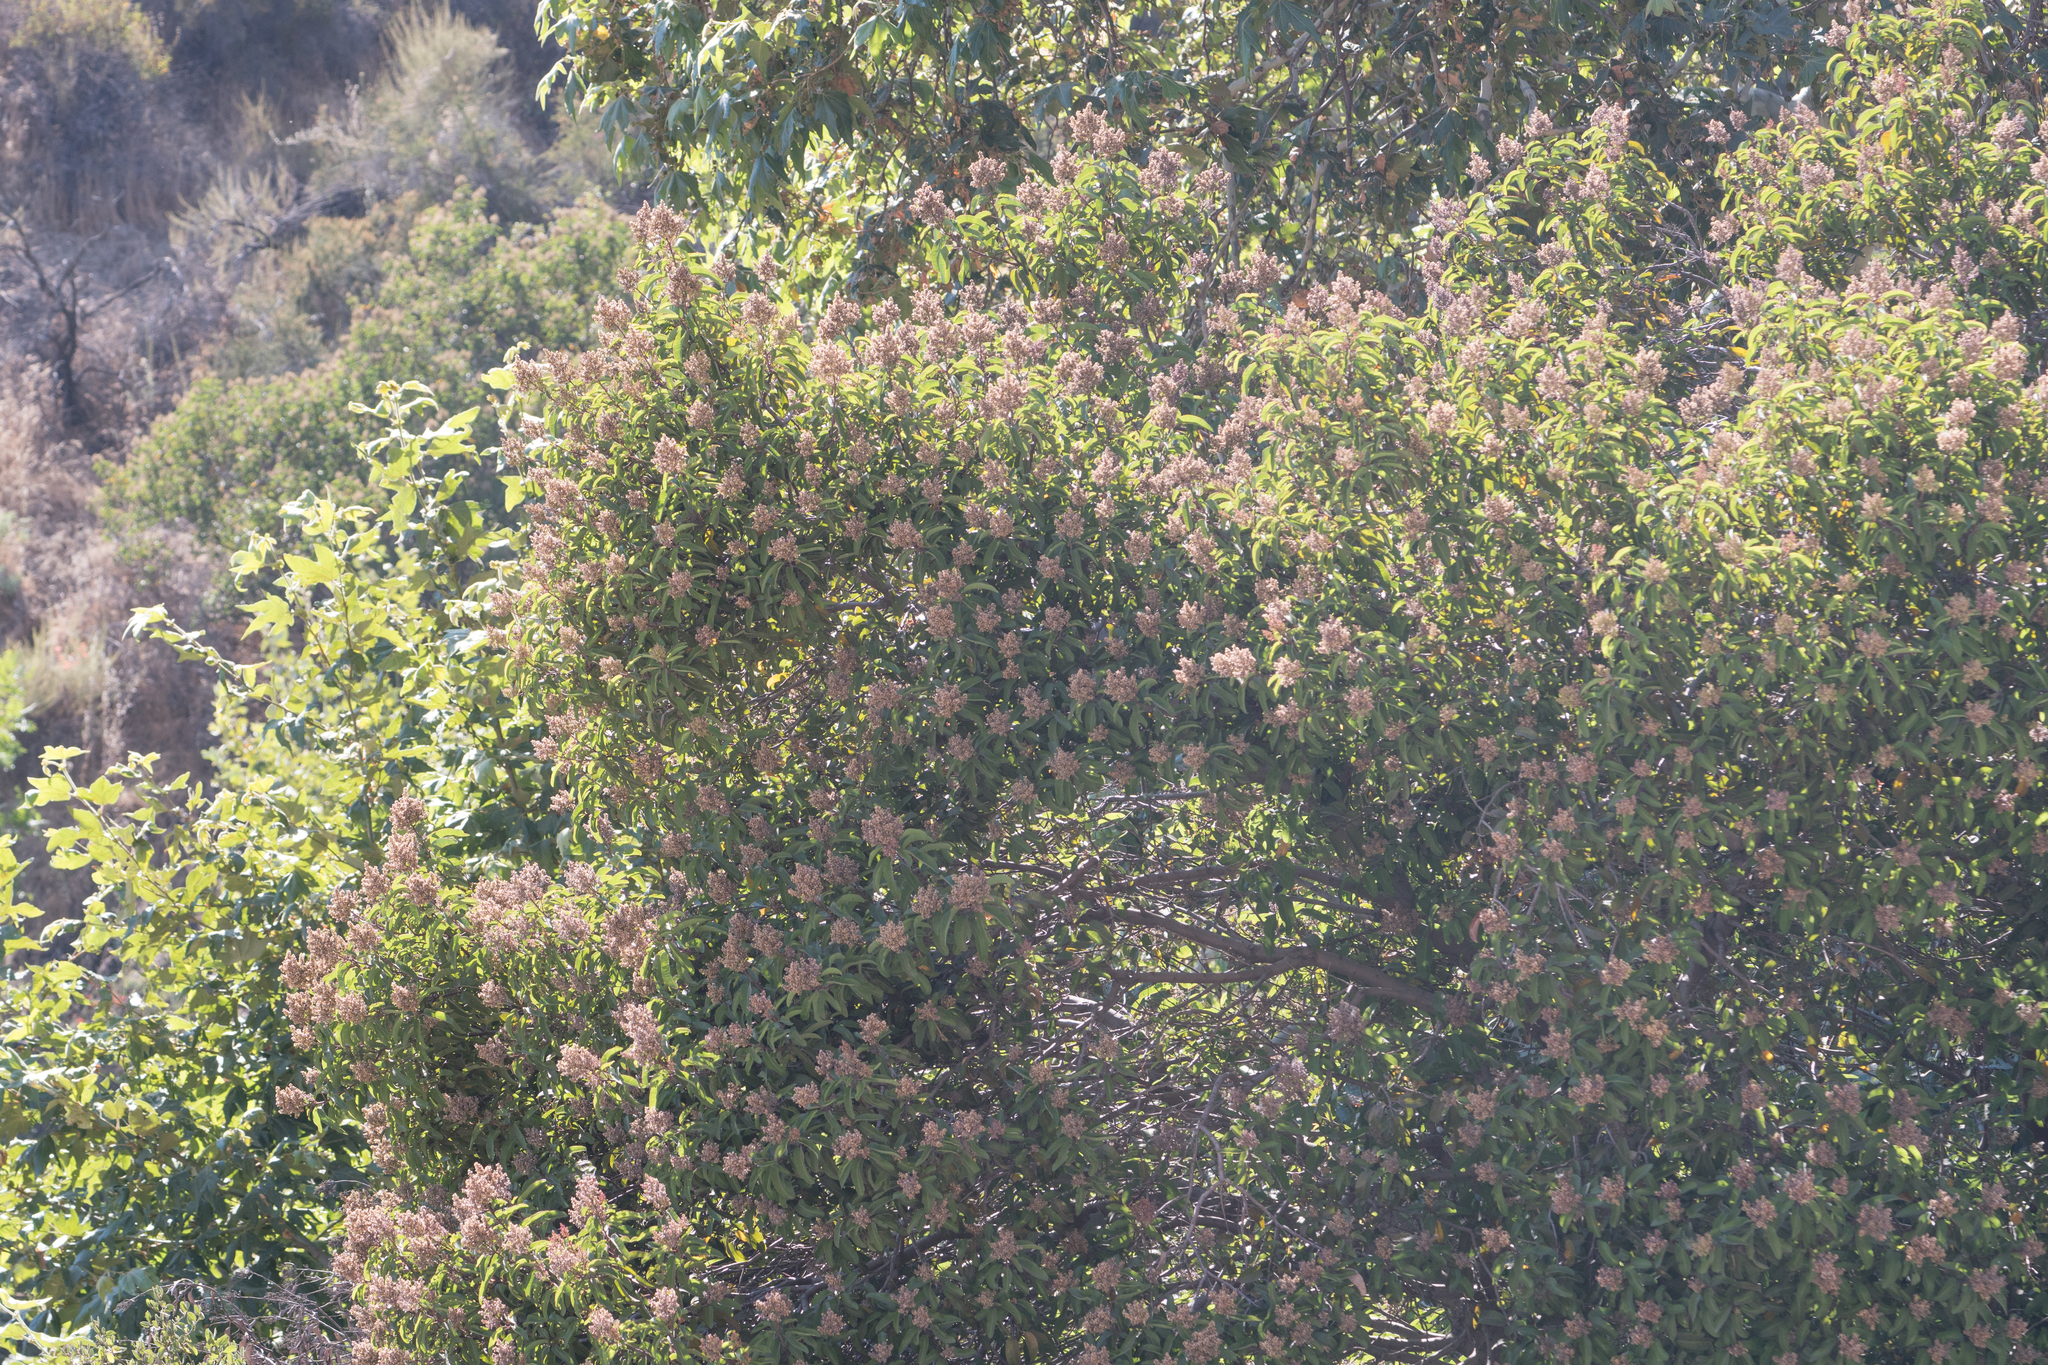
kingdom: Plantae
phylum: Tracheophyta
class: Magnoliopsida
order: Sapindales
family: Anacardiaceae
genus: Malosma
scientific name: Malosma laurina
